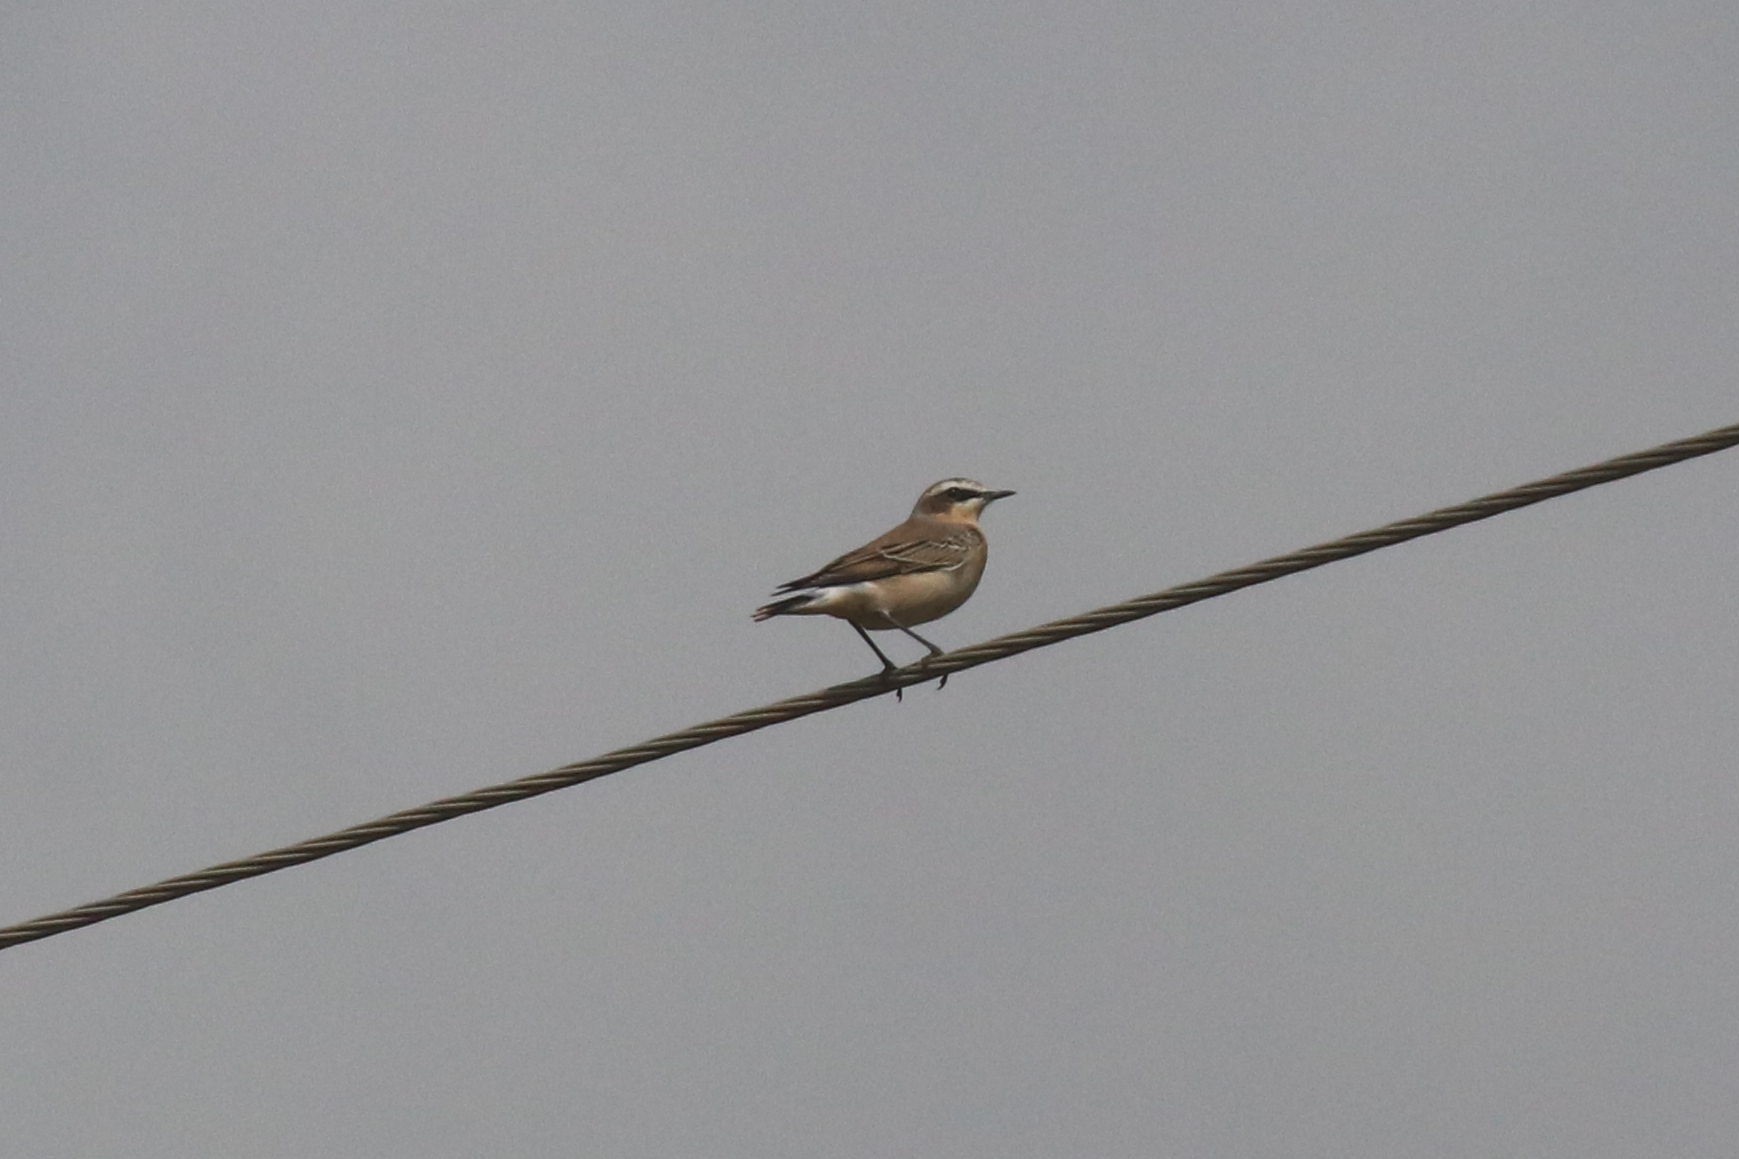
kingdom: Animalia
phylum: Chordata
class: Aves
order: Passeriformes
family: Muscicapidae
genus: Oenanthe
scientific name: Oenanthe oenanthe
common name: Northern wheatear
